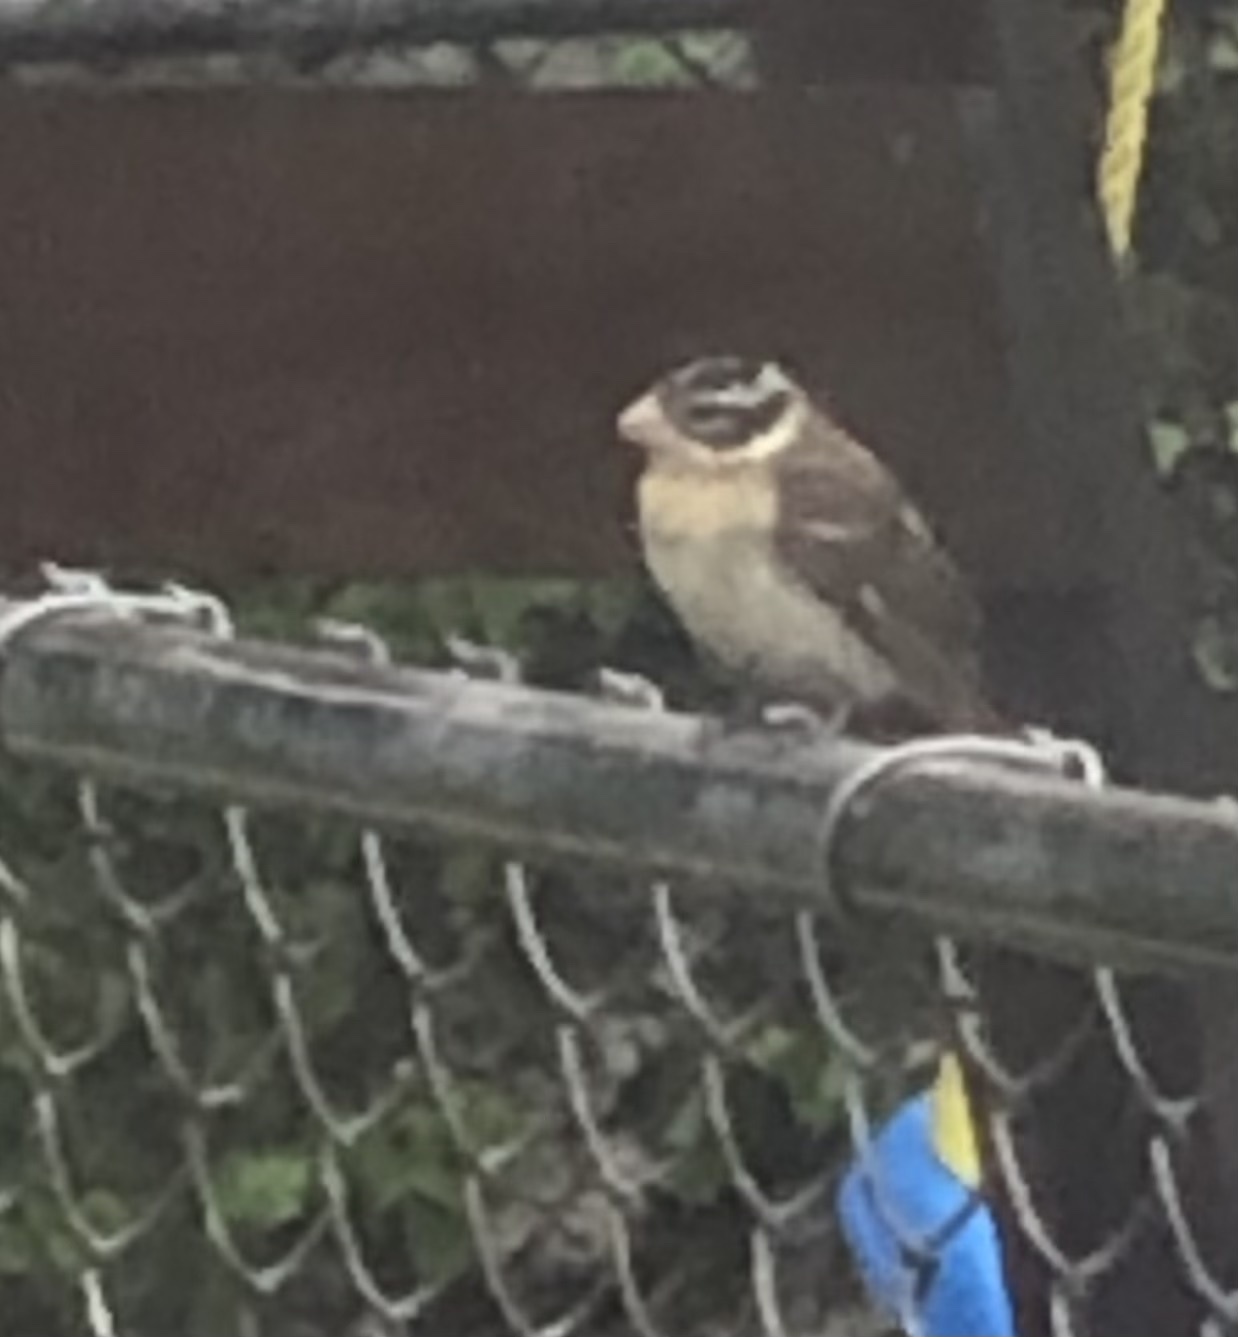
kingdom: Animalia
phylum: Chordata
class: Aves
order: Passeriformes
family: Cardinalidae
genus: Pheucticus
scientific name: Pheucticus ludovicianus
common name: Rose-breasted grosbeak
